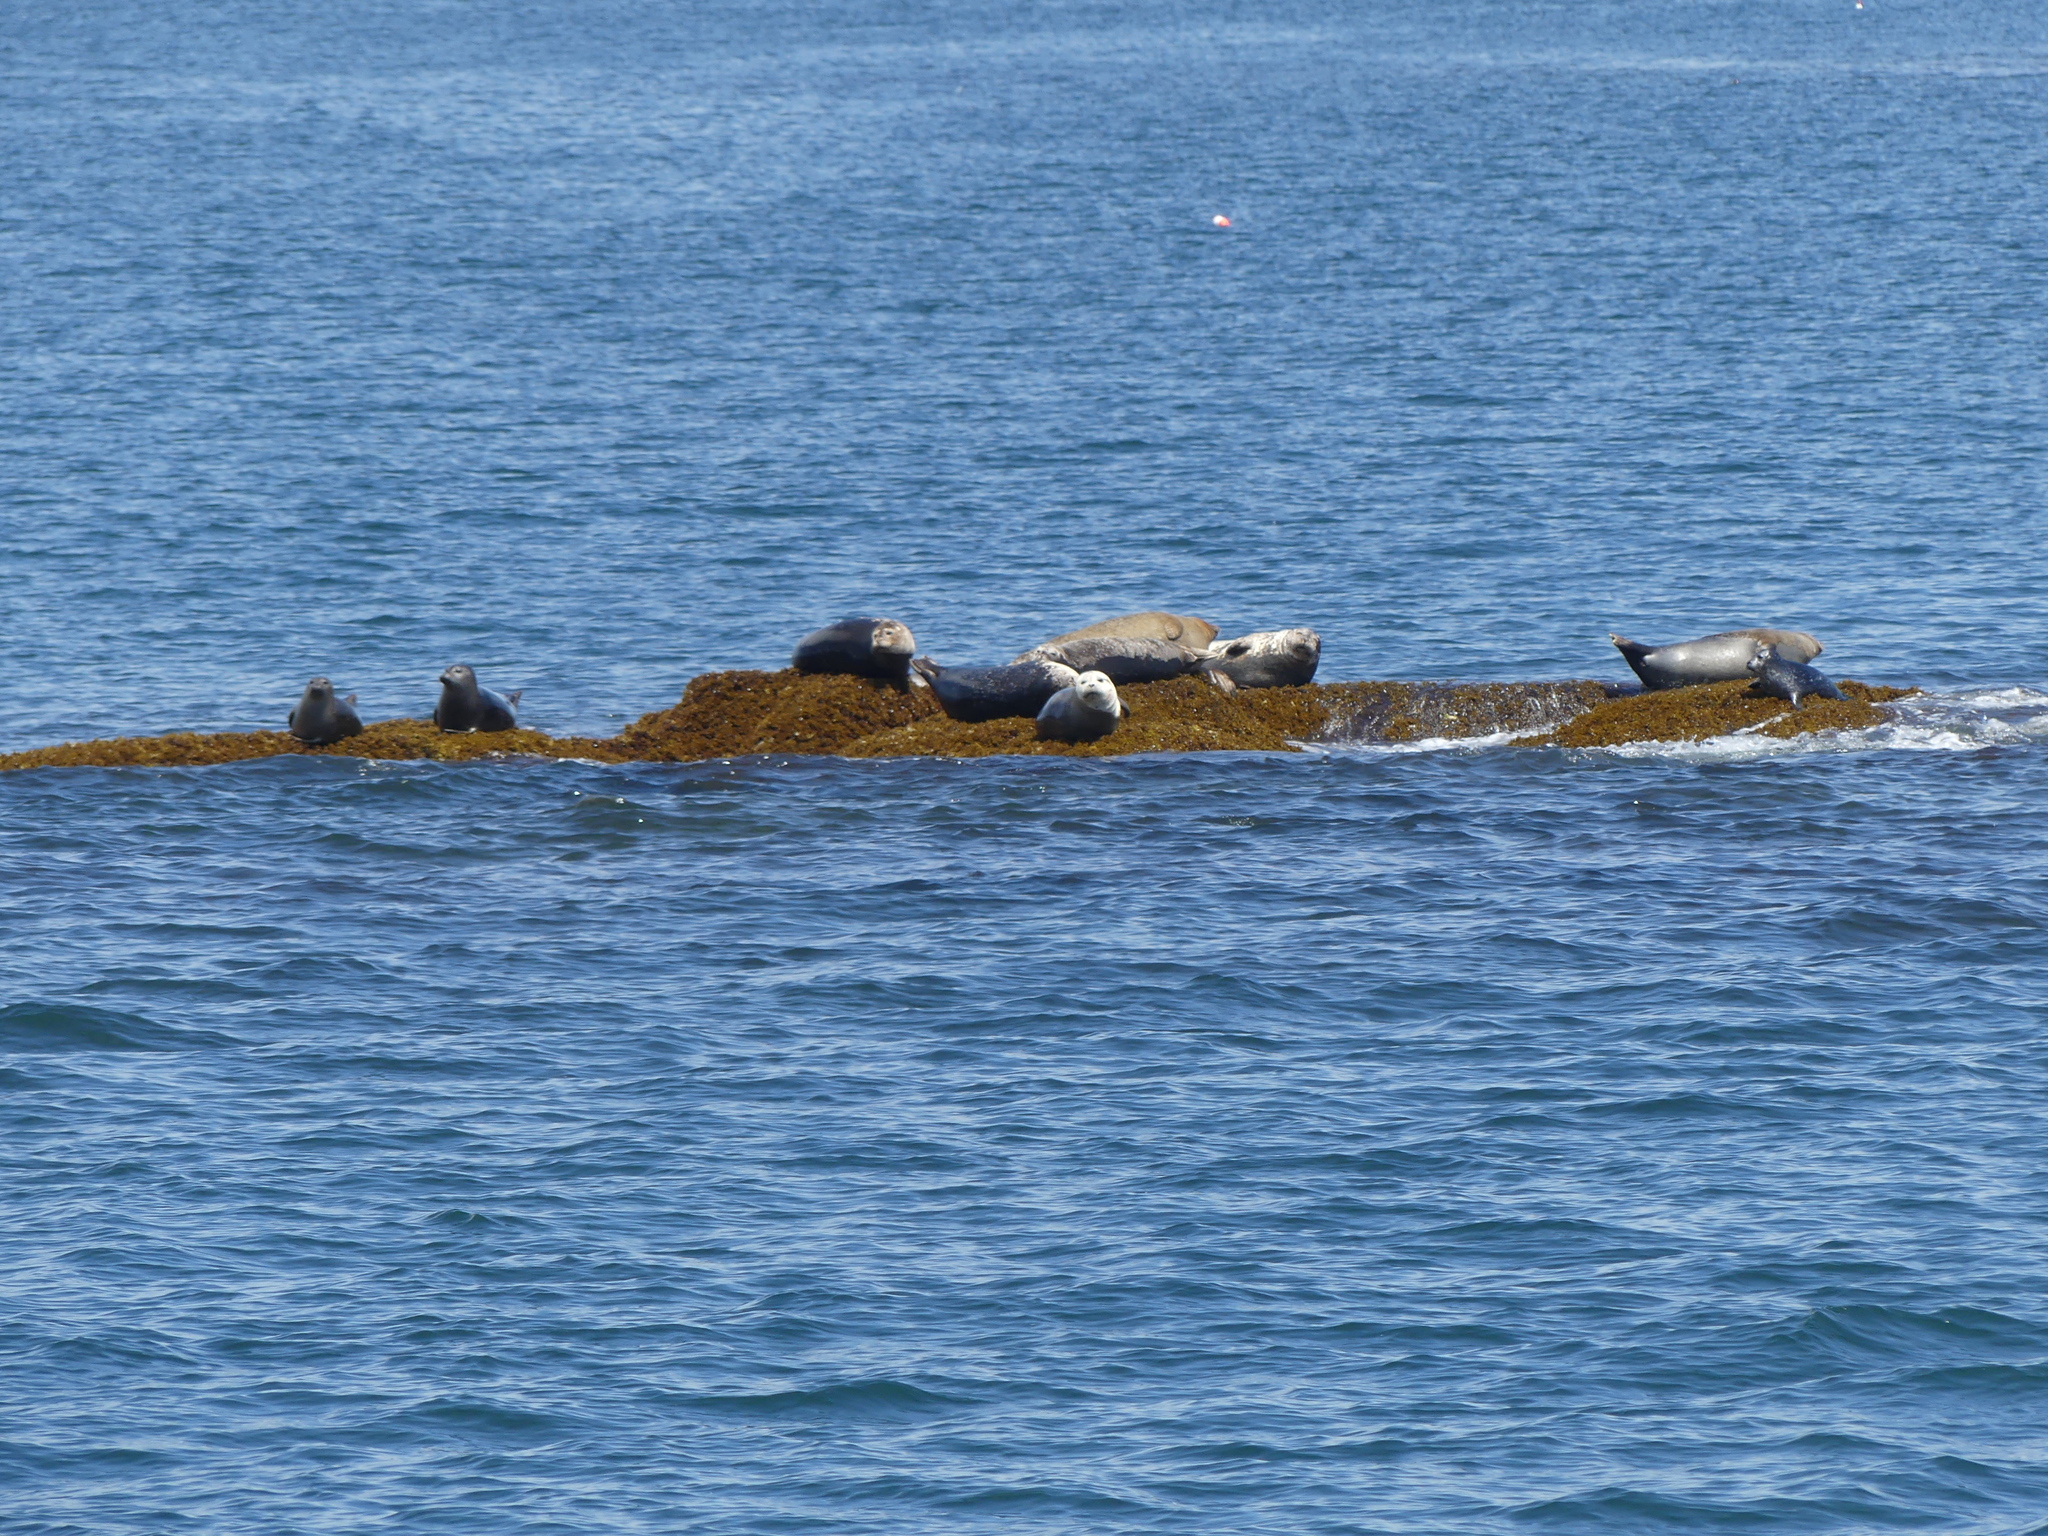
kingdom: Animalia
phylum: Chordata
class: Mammalia
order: Carnivora
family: Phocidae
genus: Phoca
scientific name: Phoca vitulina
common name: Harbor seal
